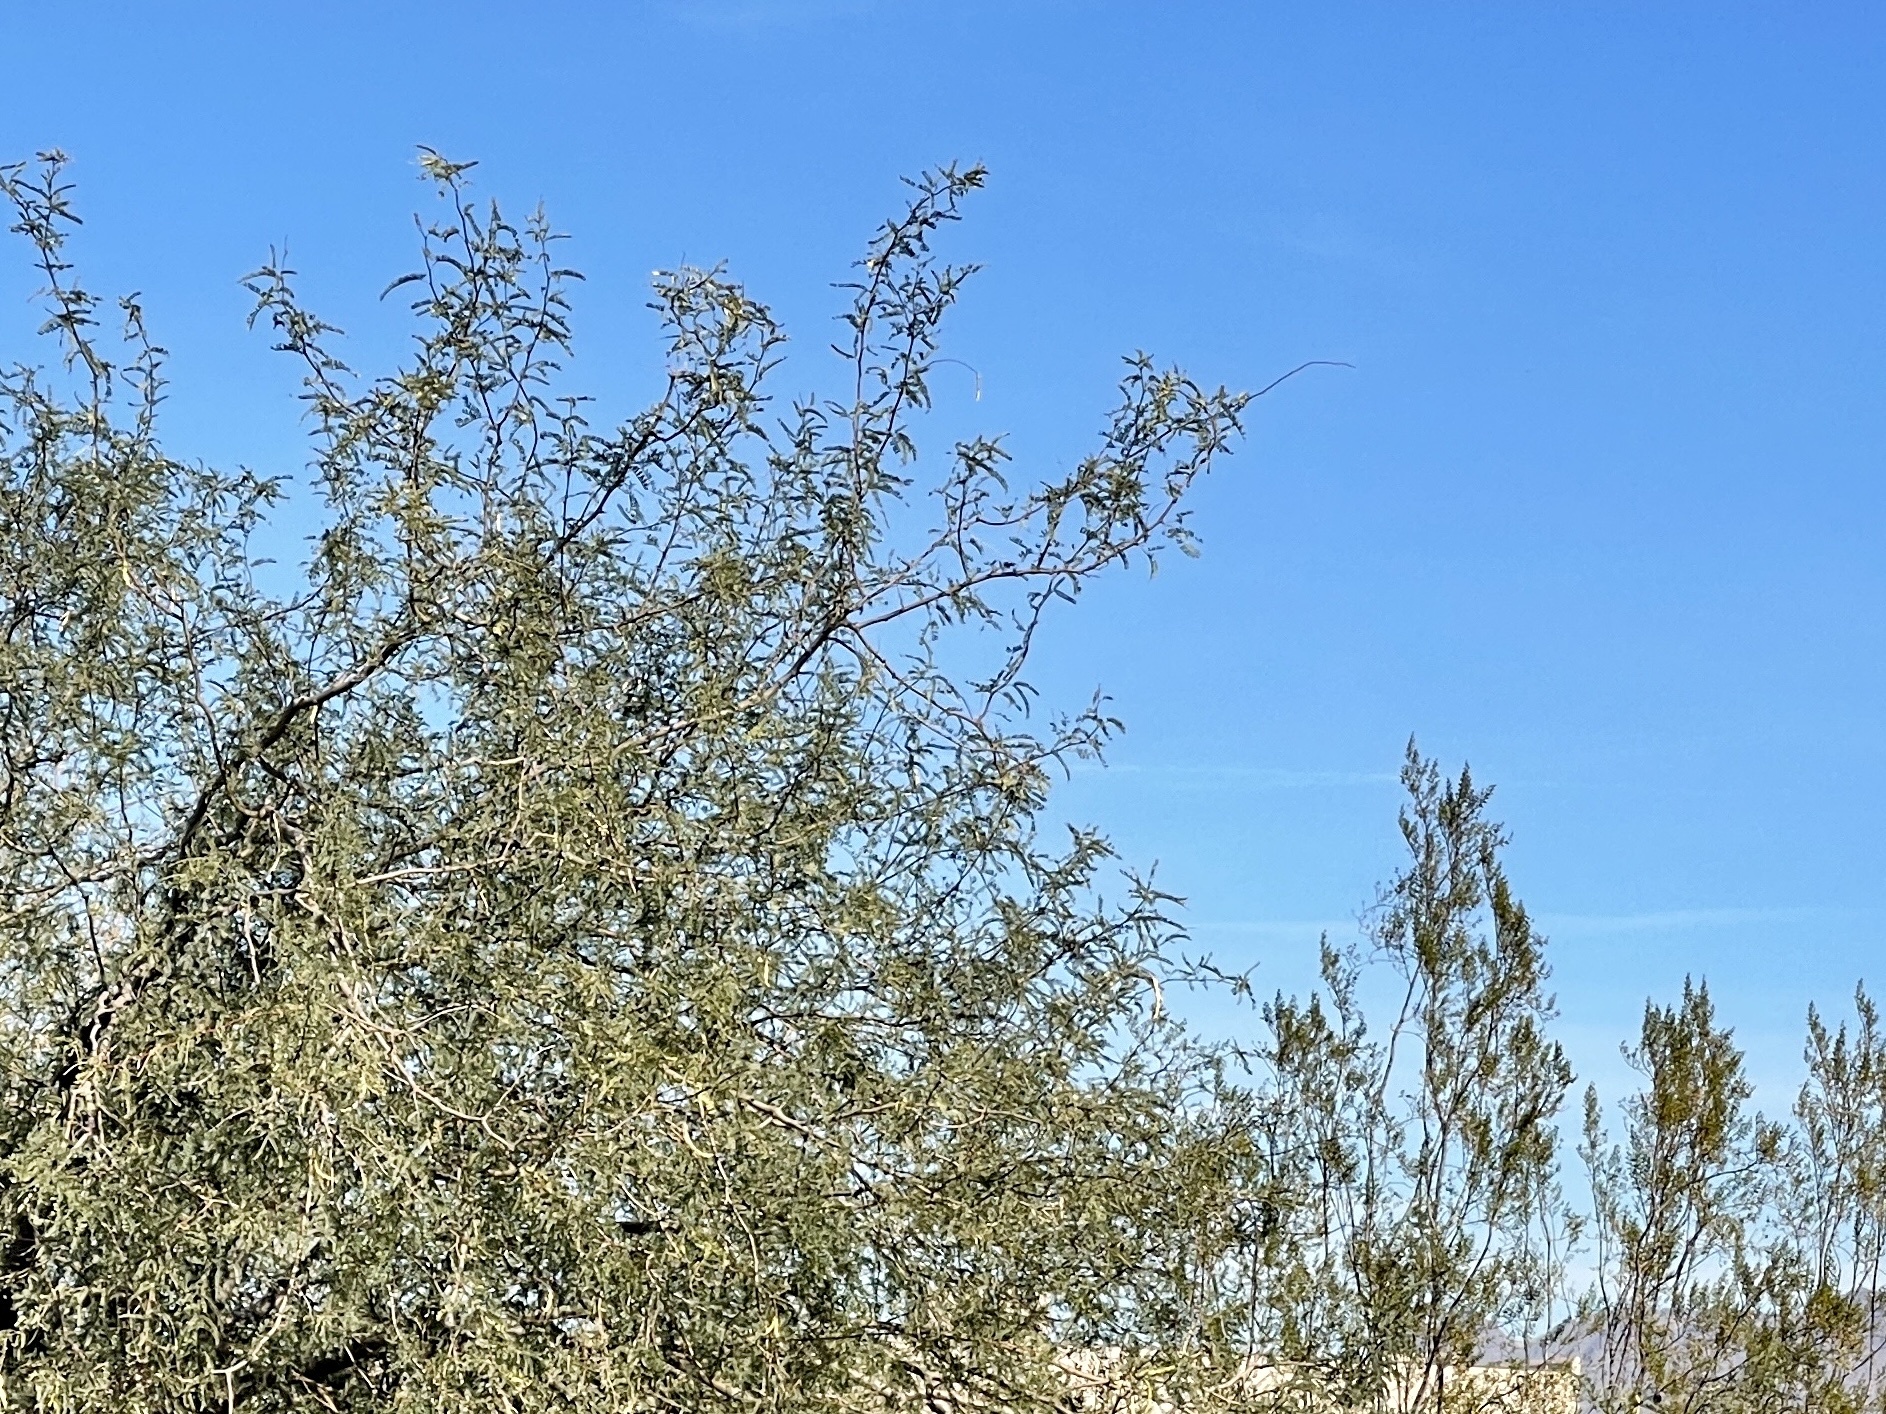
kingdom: Plantae
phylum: Tracheophyta
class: Magnoliopsida
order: Fabales
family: Fabaceae
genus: Prosopis
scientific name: Prosopis velutina
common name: Velvet mesquite
